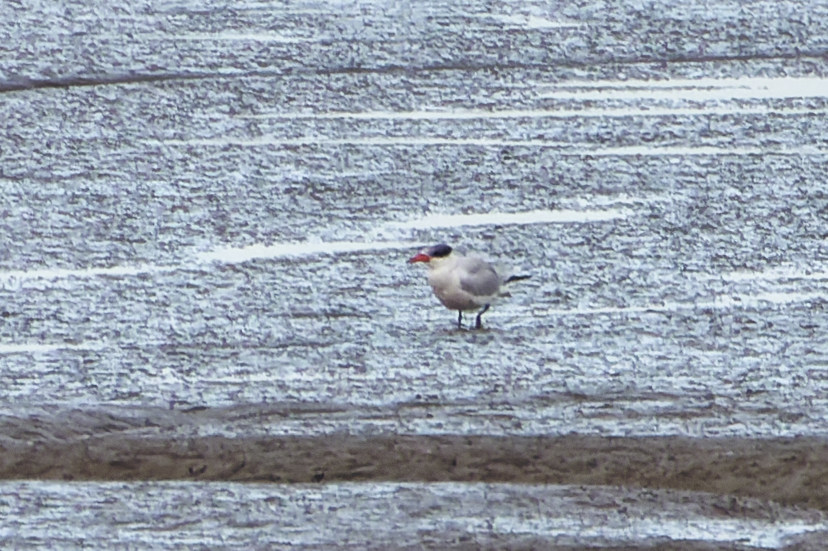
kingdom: Animalia
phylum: Chordata
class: Aves
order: Charadriiformes
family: Laridae
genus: Hydroprogne
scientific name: Hydroprogne caspia
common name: Caspian tern
